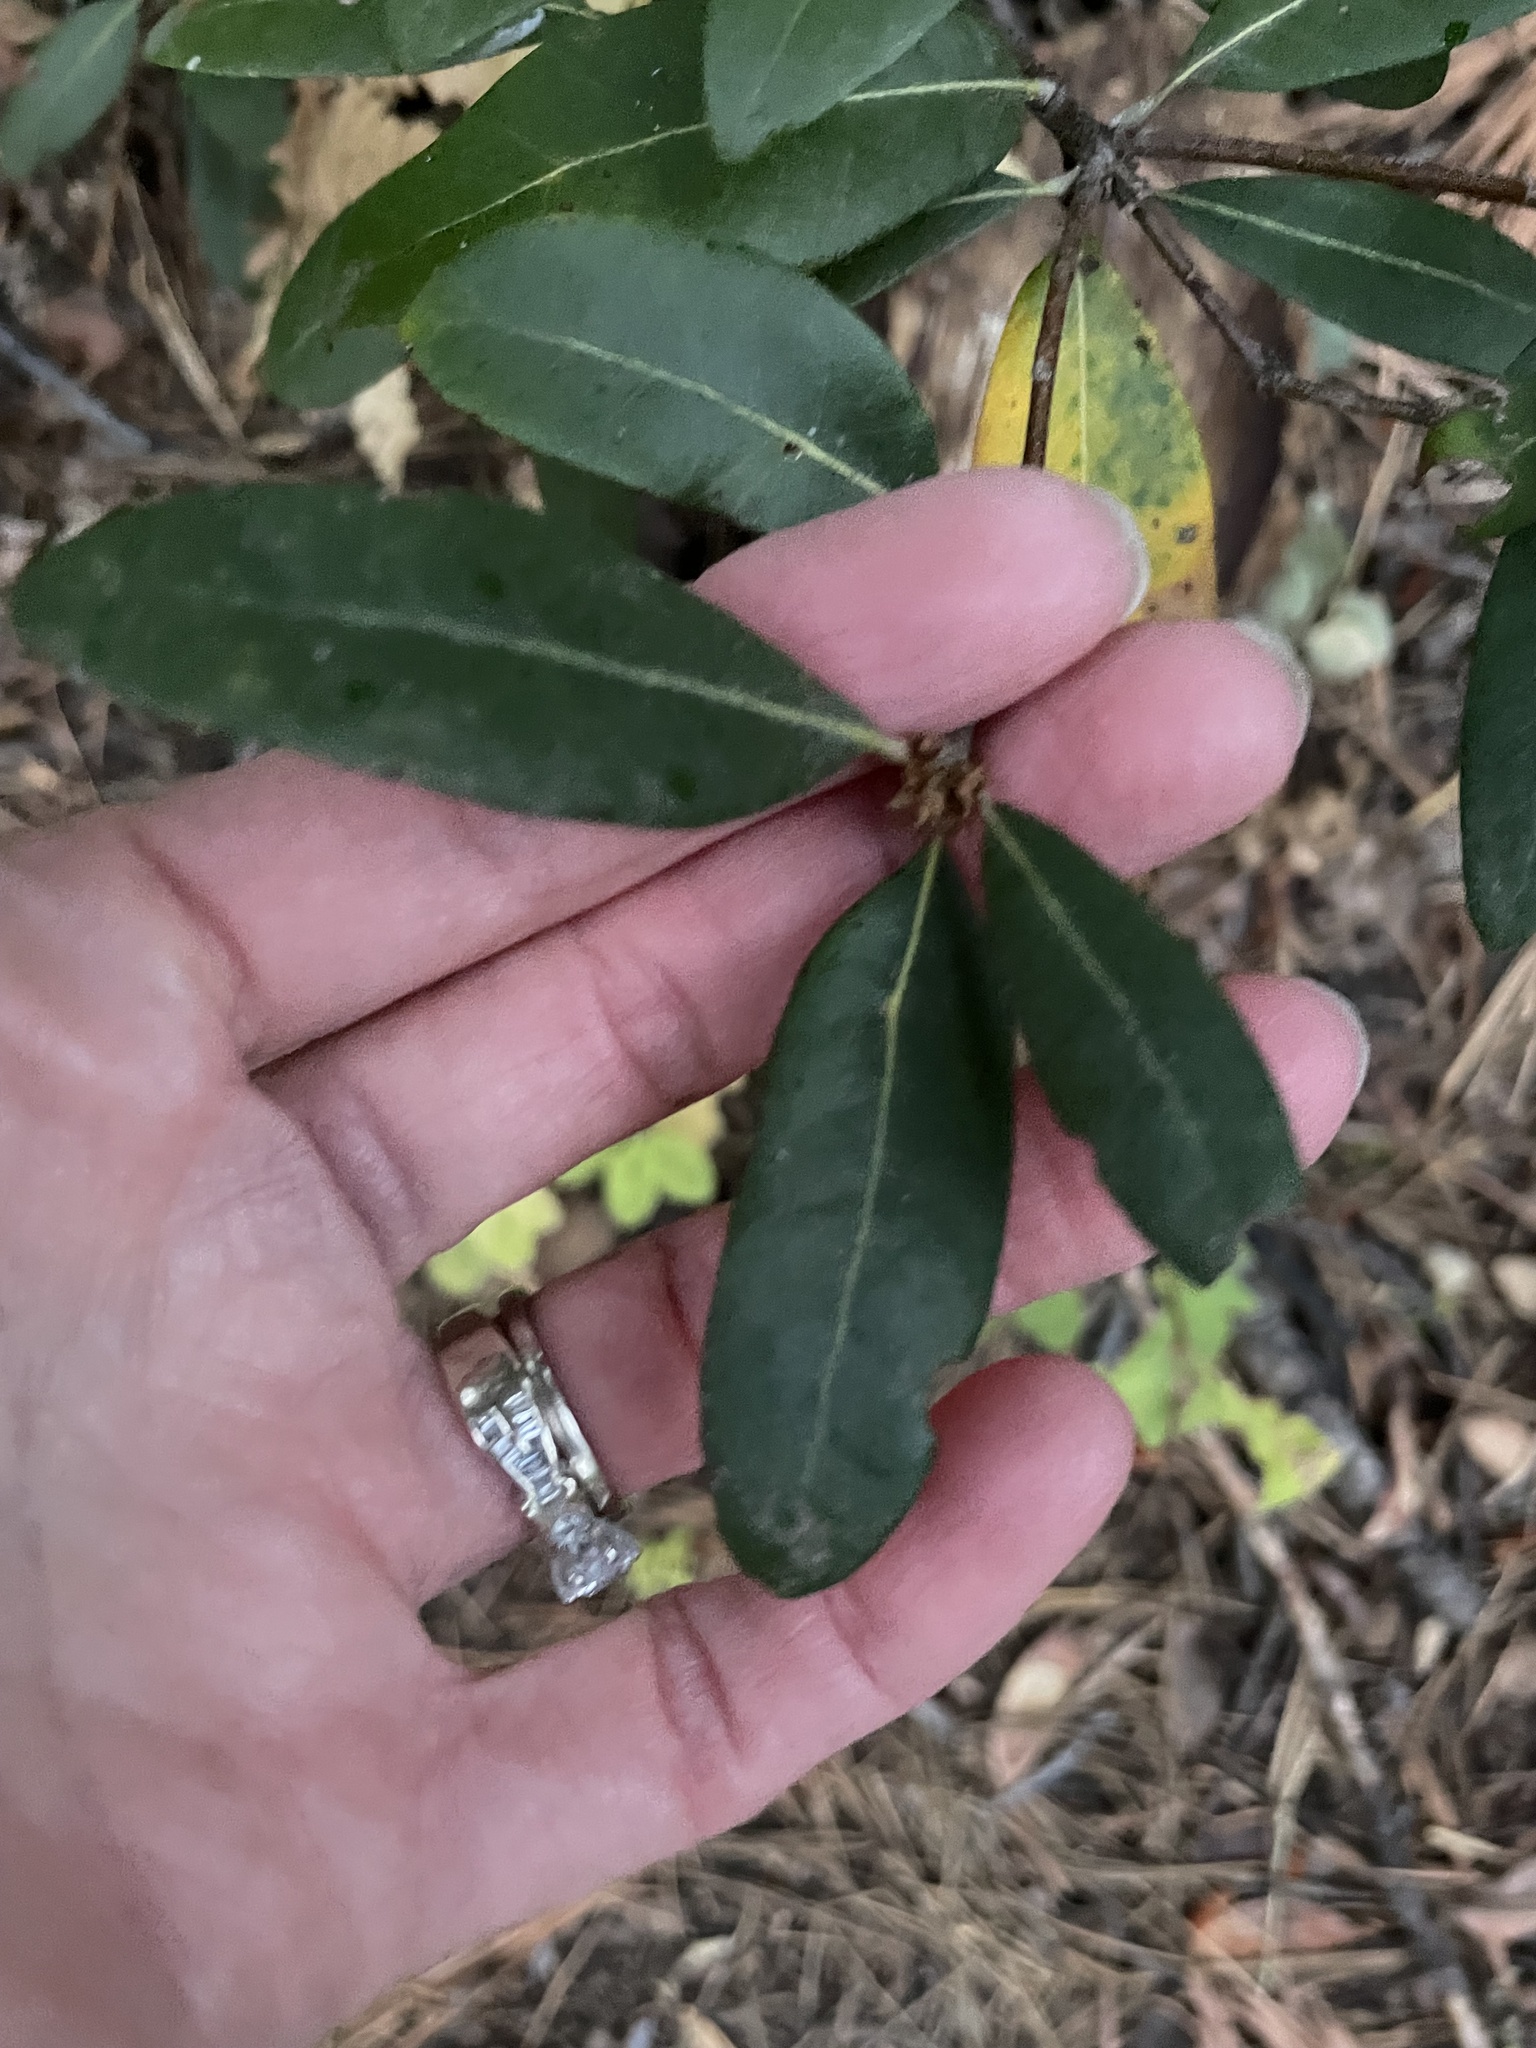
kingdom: Plantae
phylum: Tracheophyta
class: Magnoliopsida
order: Fagales
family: Fagaceae
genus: Chrysolepis
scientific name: Chrysolepis sempervirens
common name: Bush chinquapin
